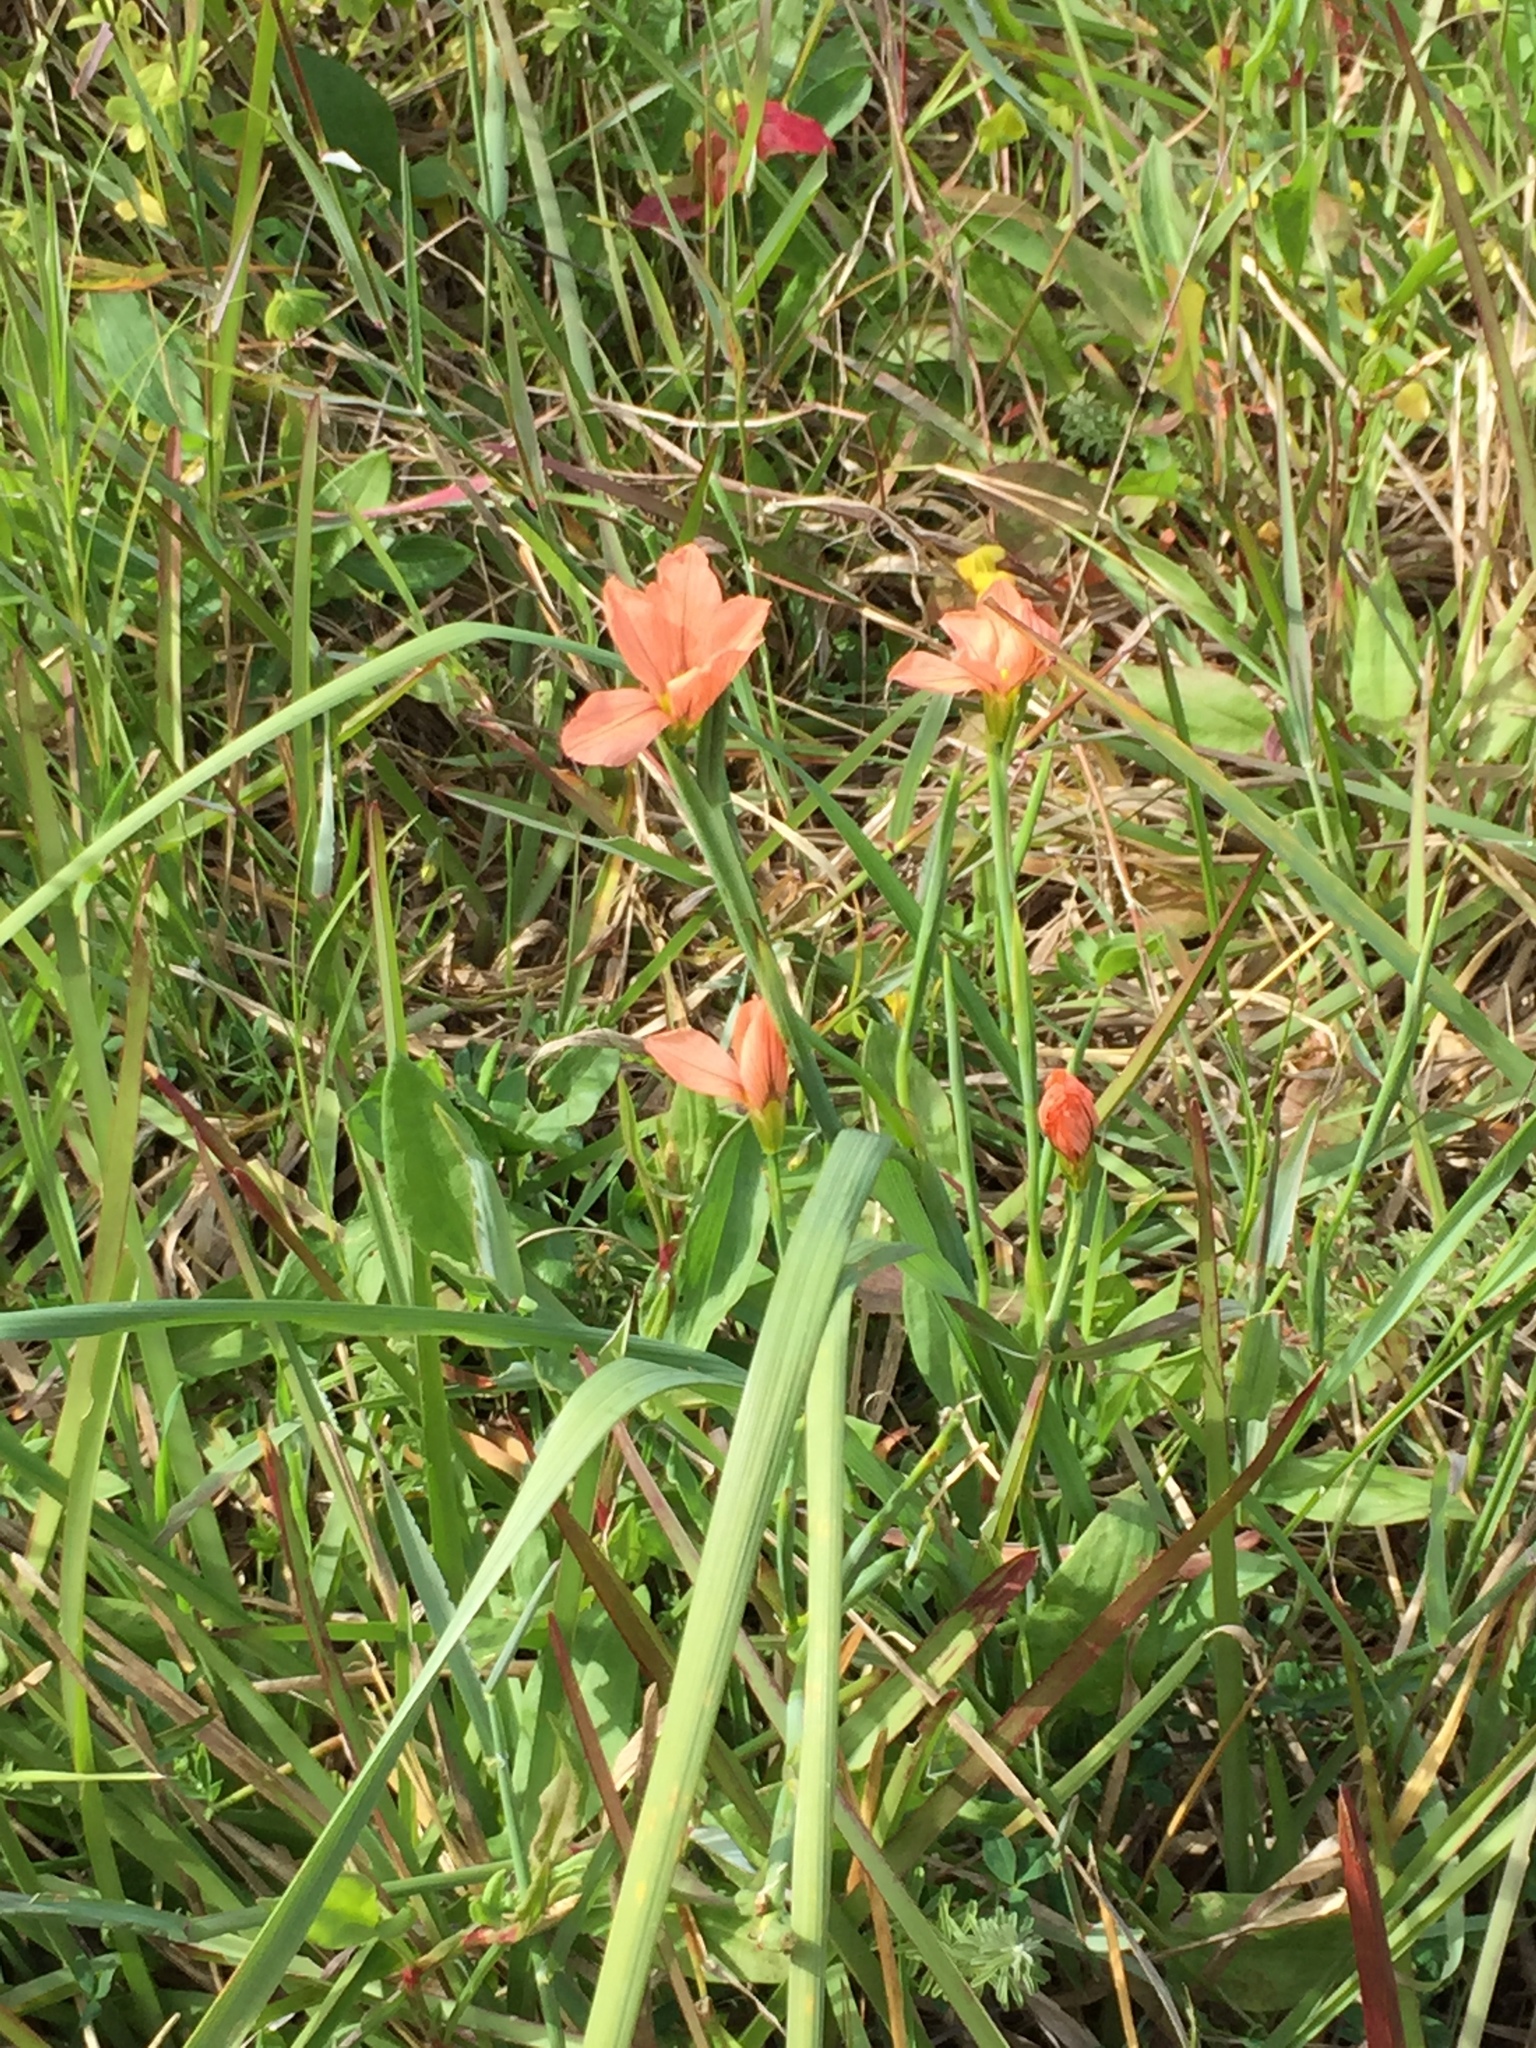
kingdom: Plantae
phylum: Tracheophyta
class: Liliopsida
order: Asparagales
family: Iridaceae
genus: Moraea
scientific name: Moraea flaccida
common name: One-leaf cape-tulip
